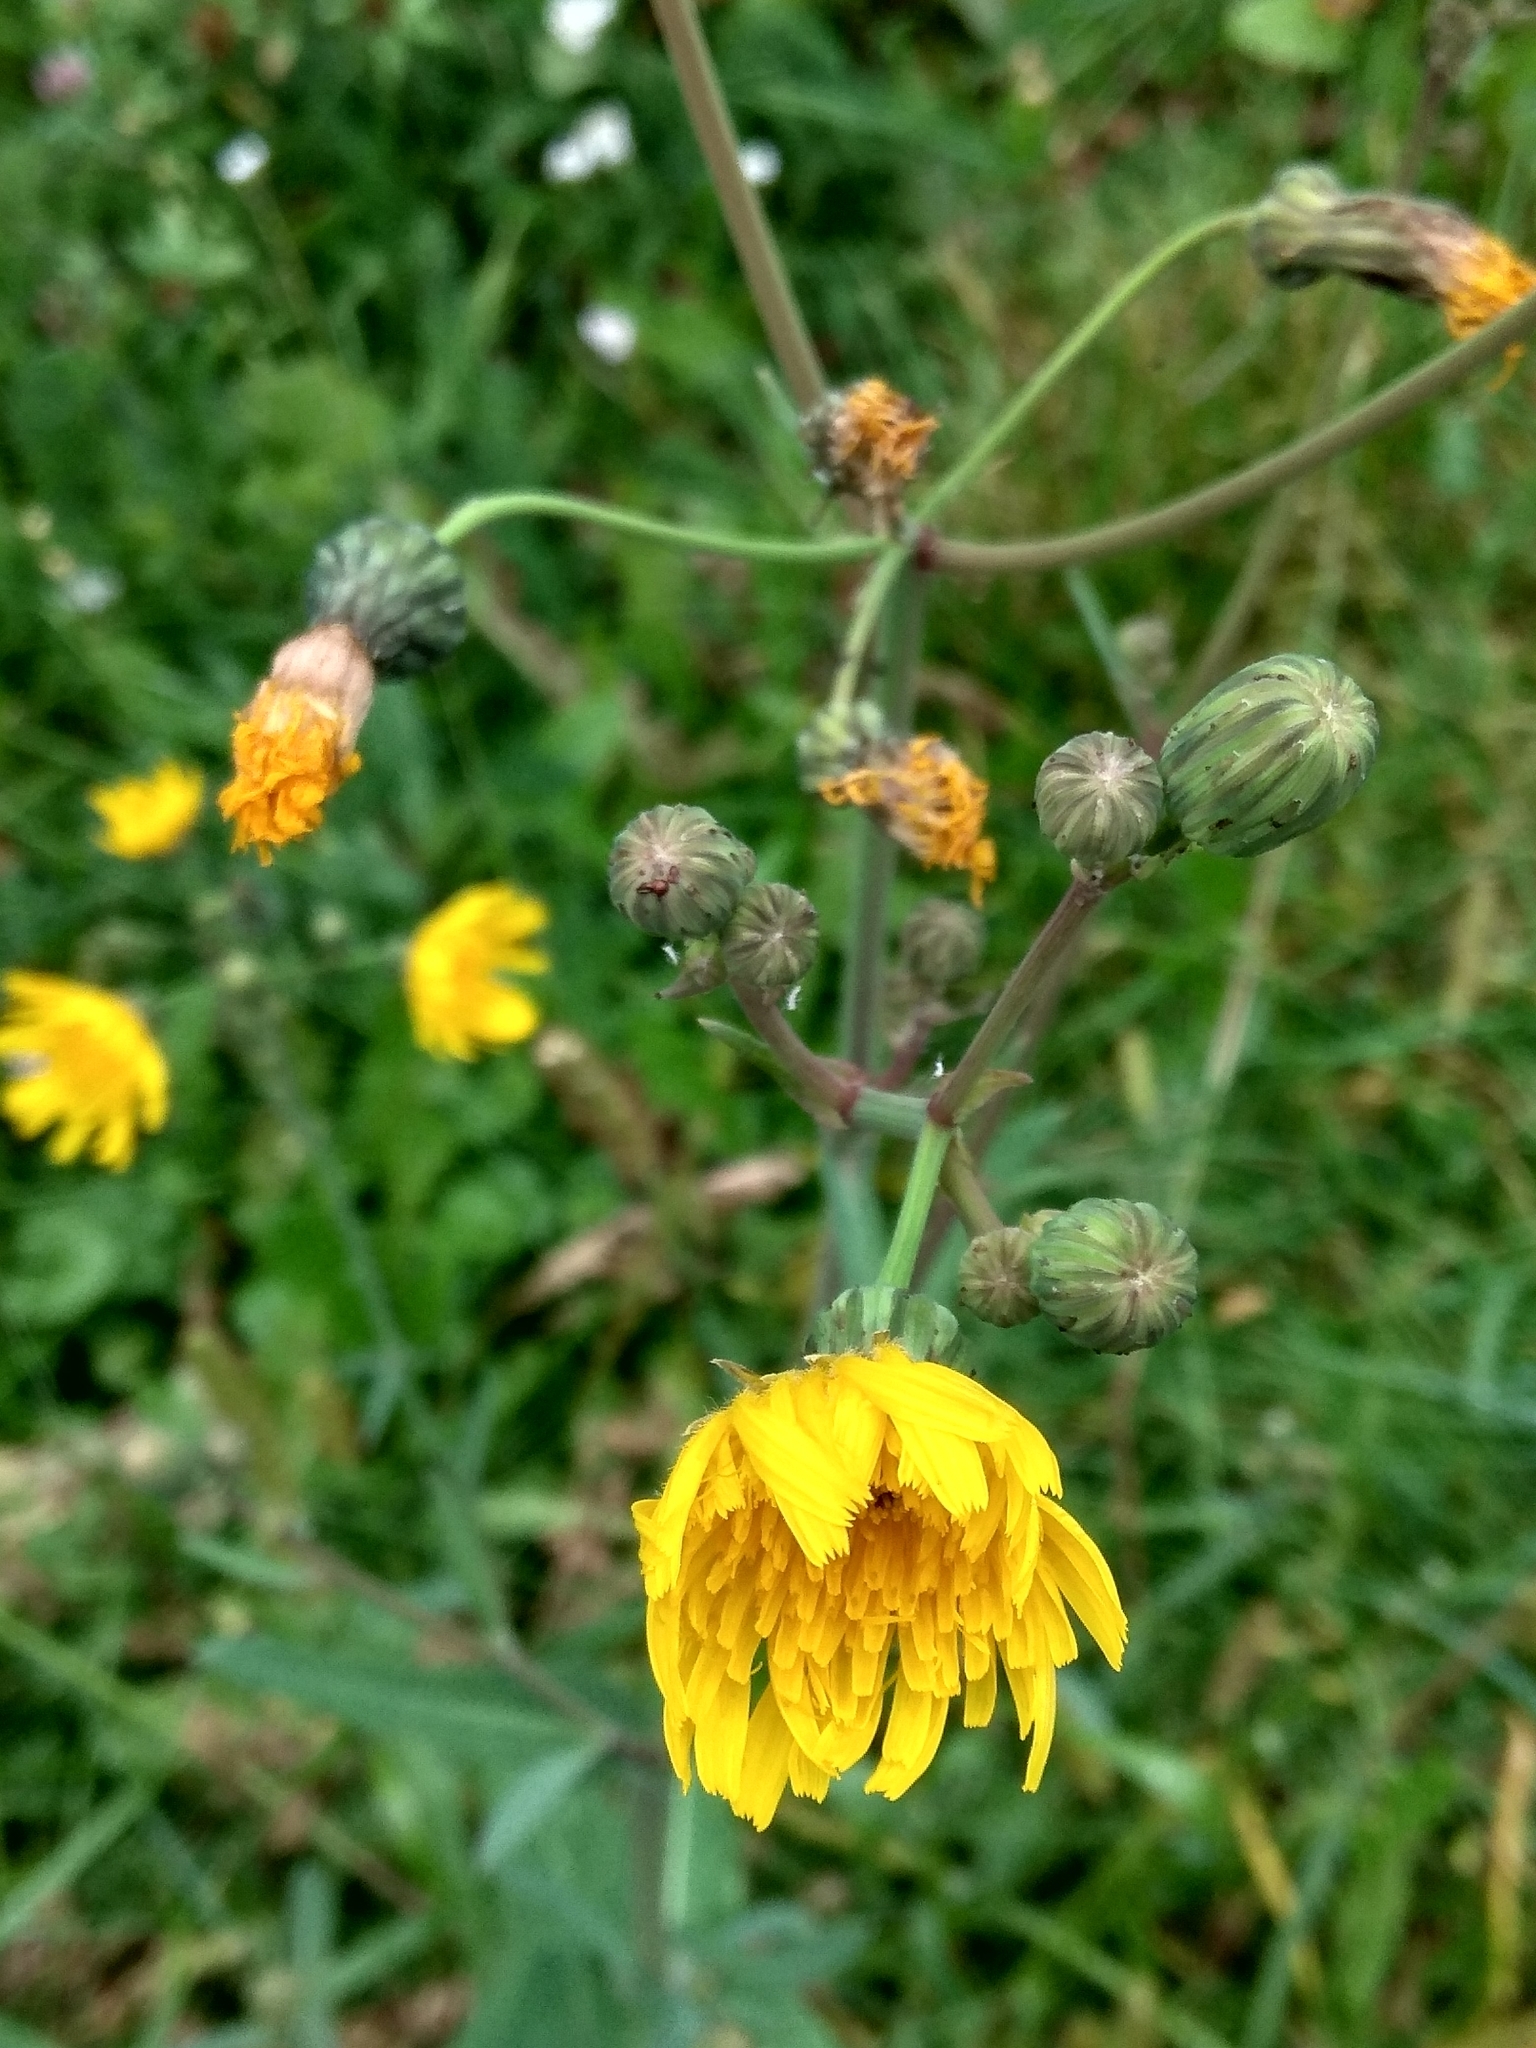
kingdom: Plantae
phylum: Tracheophyta
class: Magnoliopsida
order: Asterales
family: Asteraceae
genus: Sonchus
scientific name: Sonchus arvensis
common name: Perennial sow-thistle
